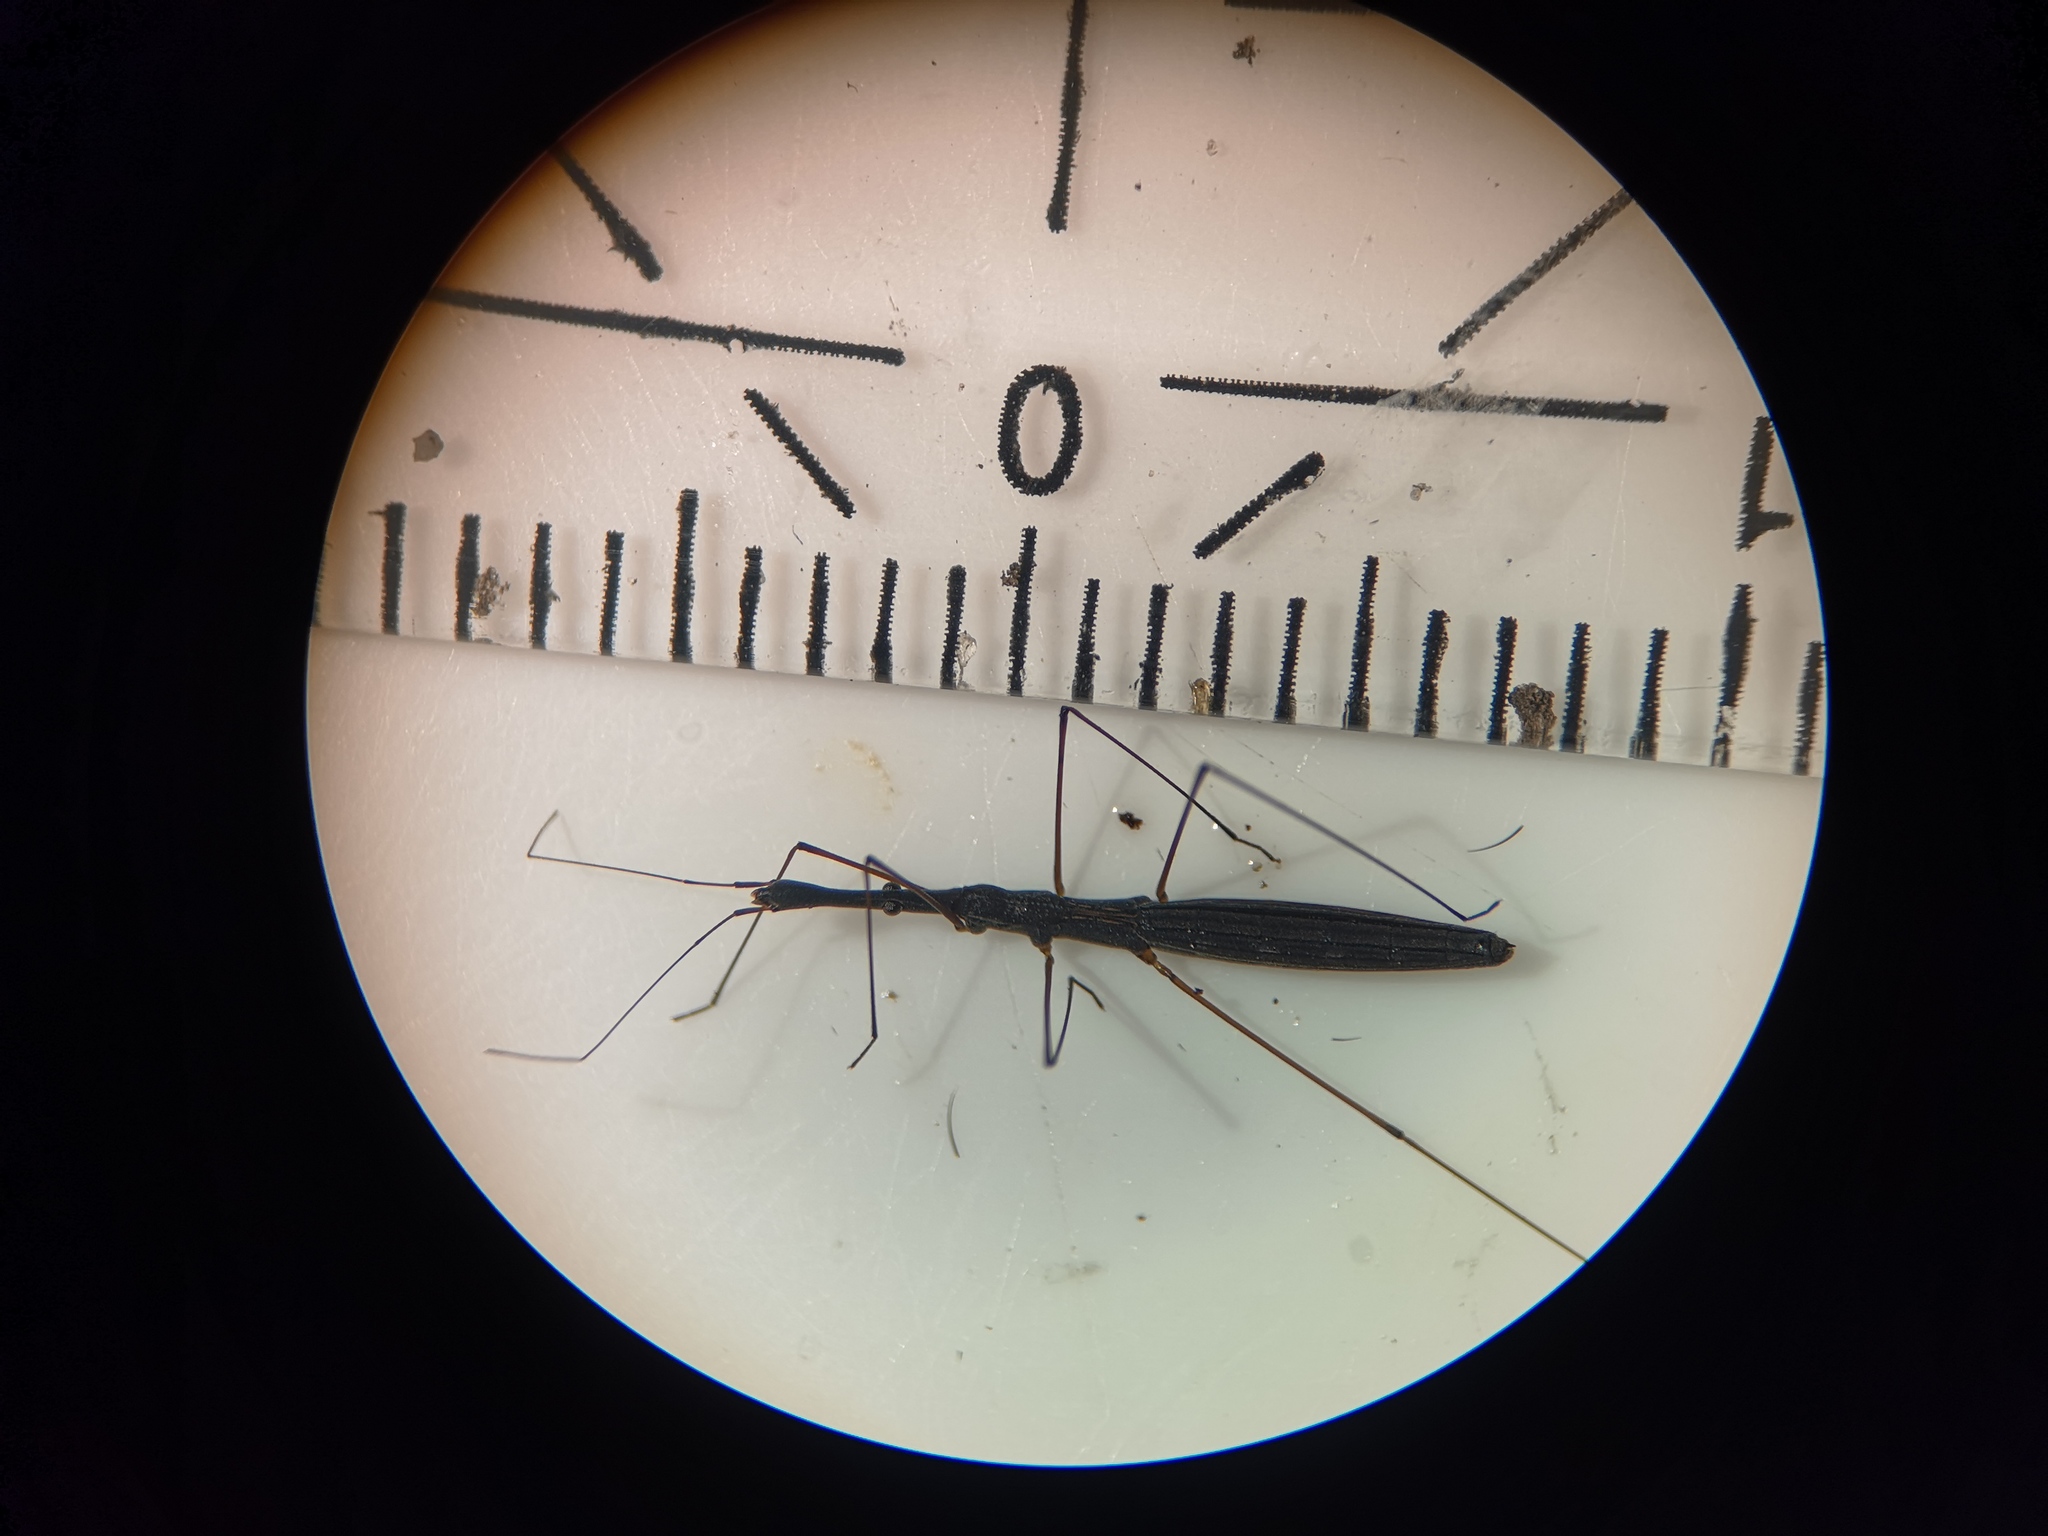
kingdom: Animalia
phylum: Arthropoda
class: Insecta
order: Hemiptera
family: Hydrometridae
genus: Hydrometra
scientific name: Hydrometra stagnorum
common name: Water measurer
